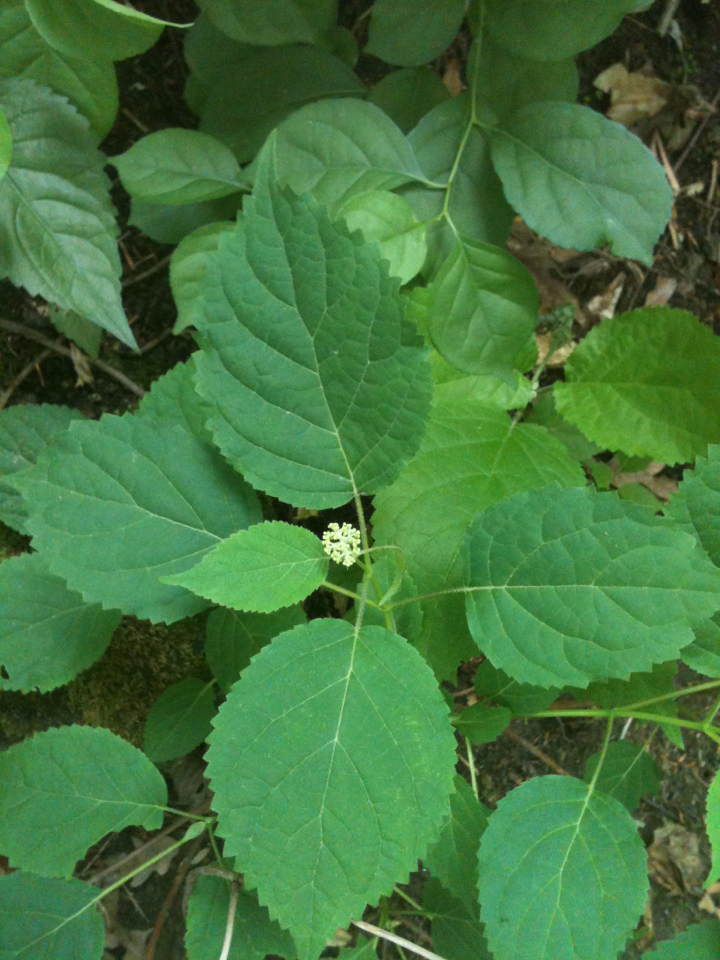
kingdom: Plantae
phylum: Tracheophyta
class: Magnoliopsida
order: Cornales
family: Hydrangeaceae
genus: Hydrangea
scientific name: Hydrangea arborescens
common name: Sevenbark
